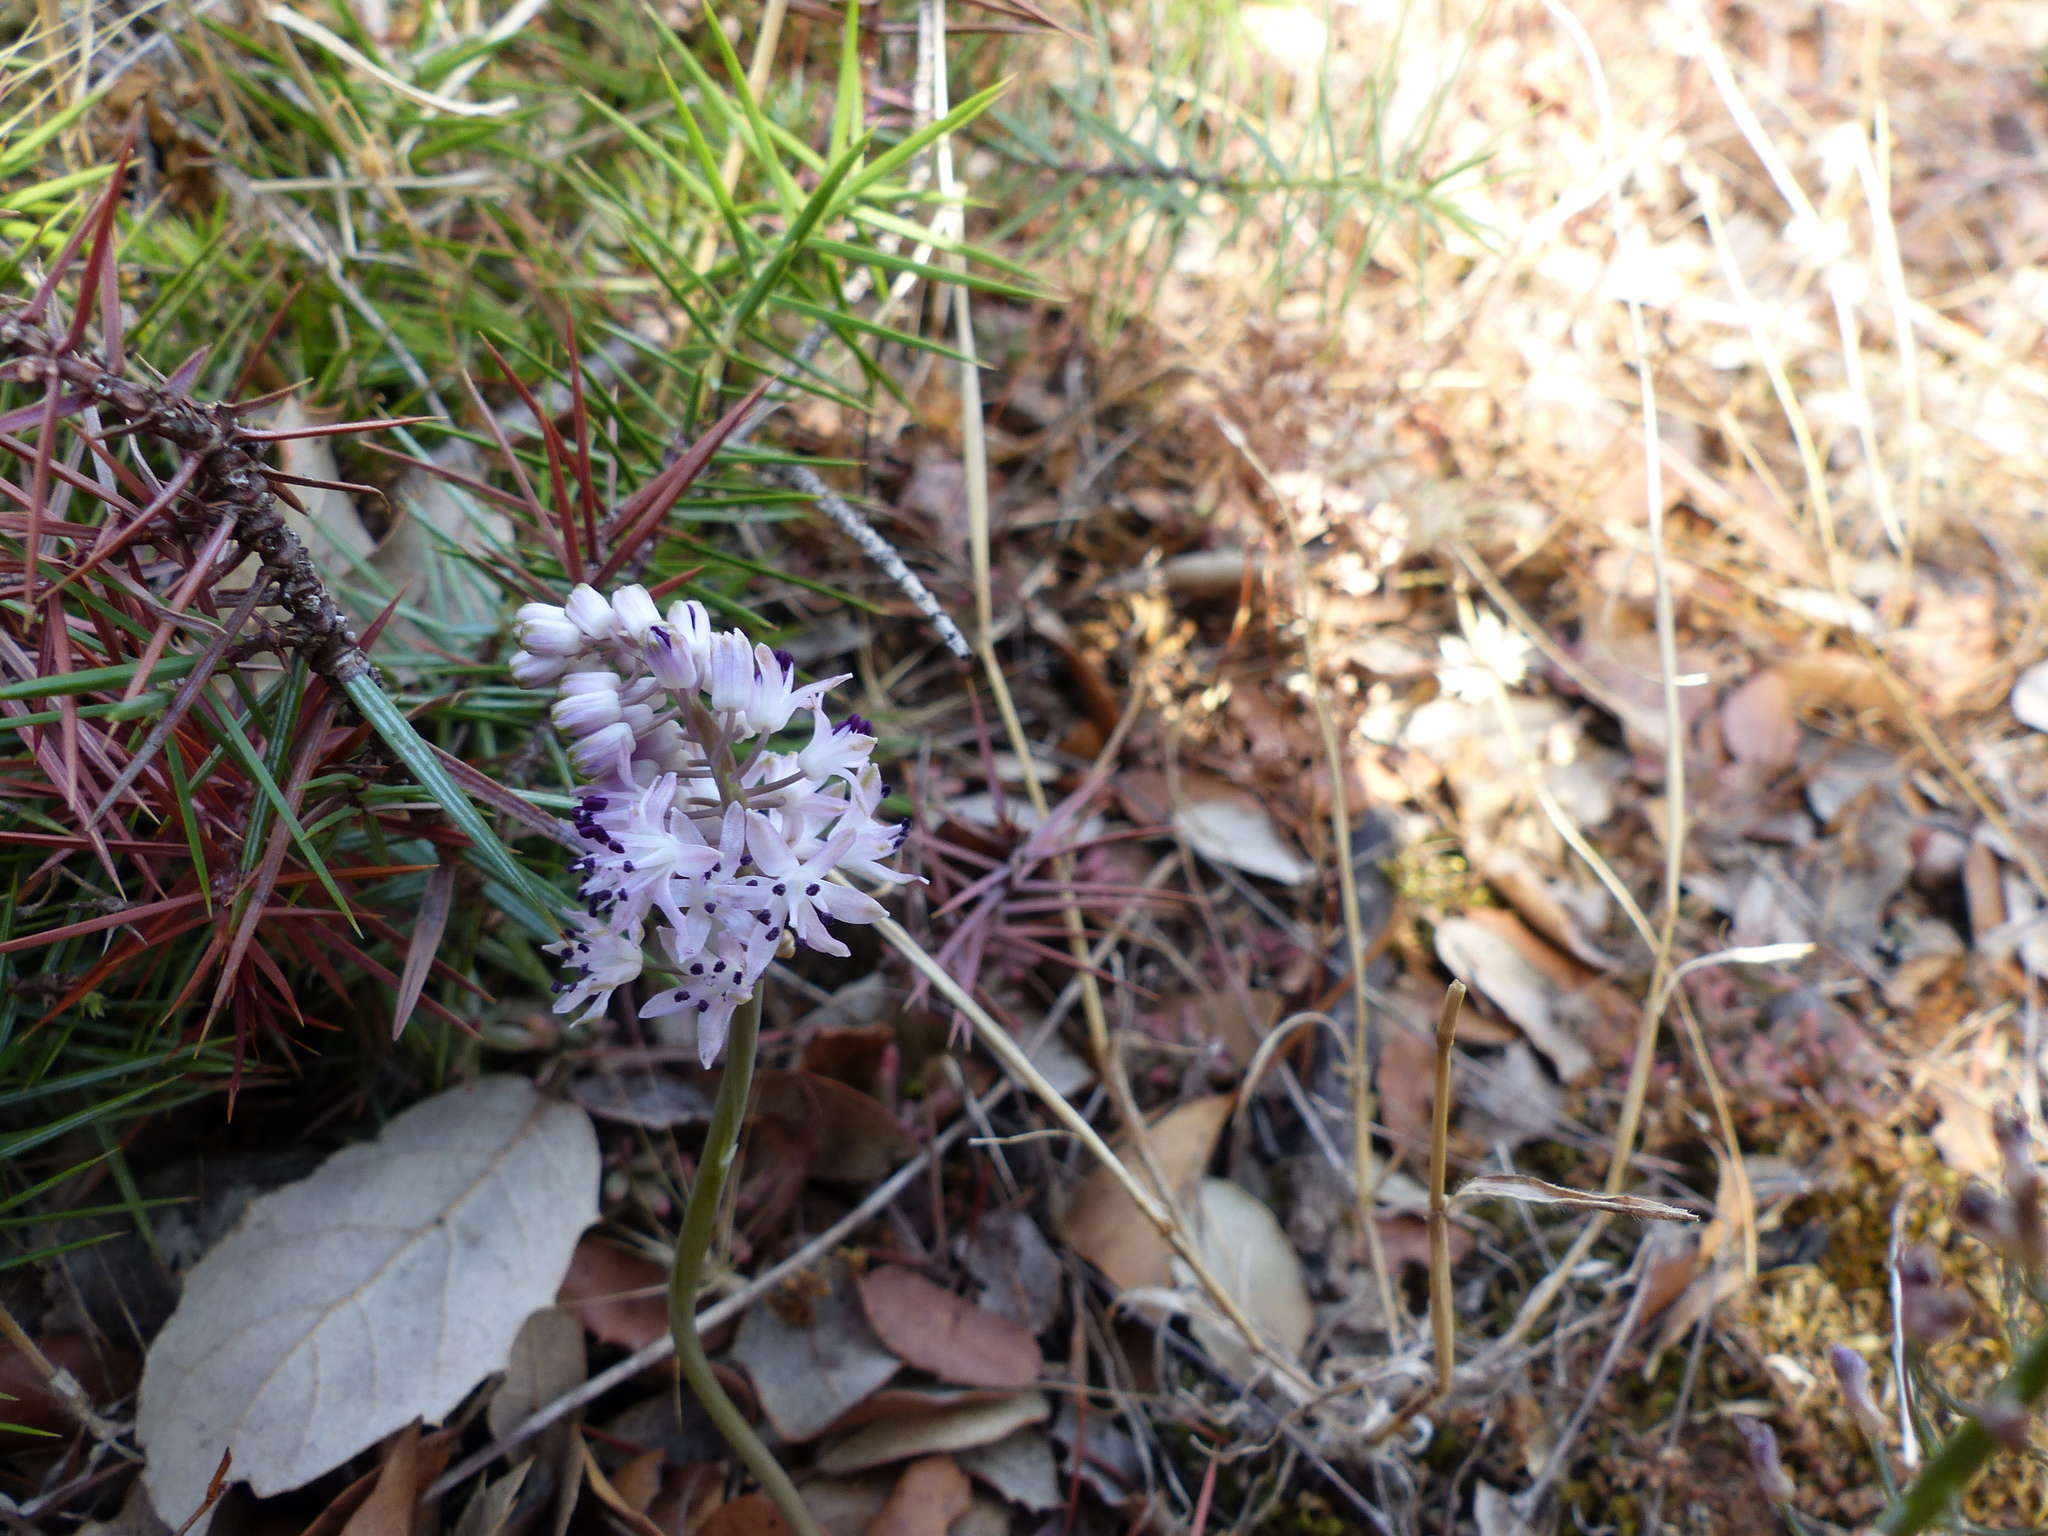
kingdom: Plantae
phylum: Tracheophyta
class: Liliopsida
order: Asparagales
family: Asparagaceae
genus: Prospero
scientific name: Prospero autumnale
